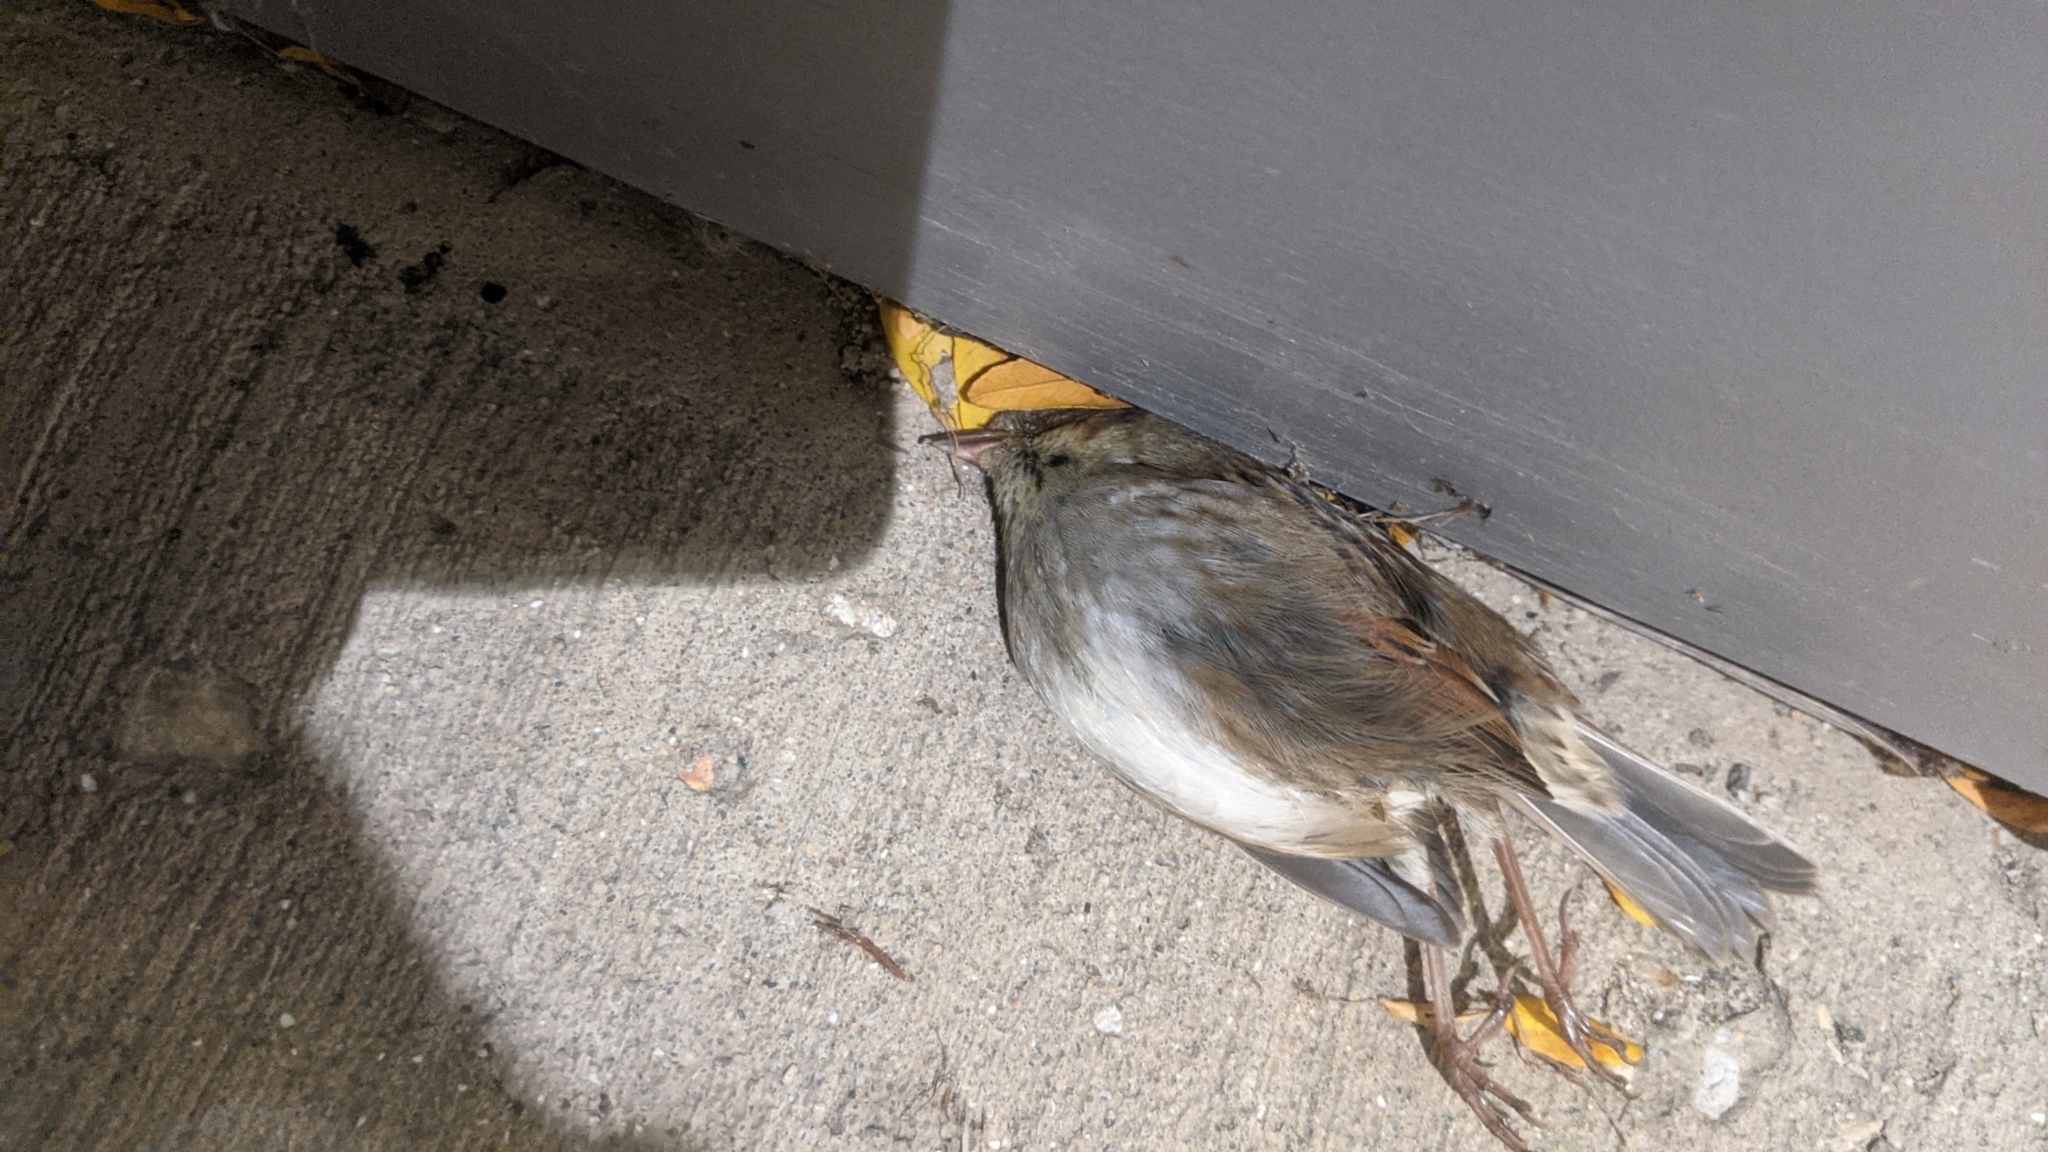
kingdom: Animalia
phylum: Chordata
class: Aves
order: Passeriformes
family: Passerellidae
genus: Melospiza
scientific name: Melospiza georgiana
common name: Swamp sparrow
